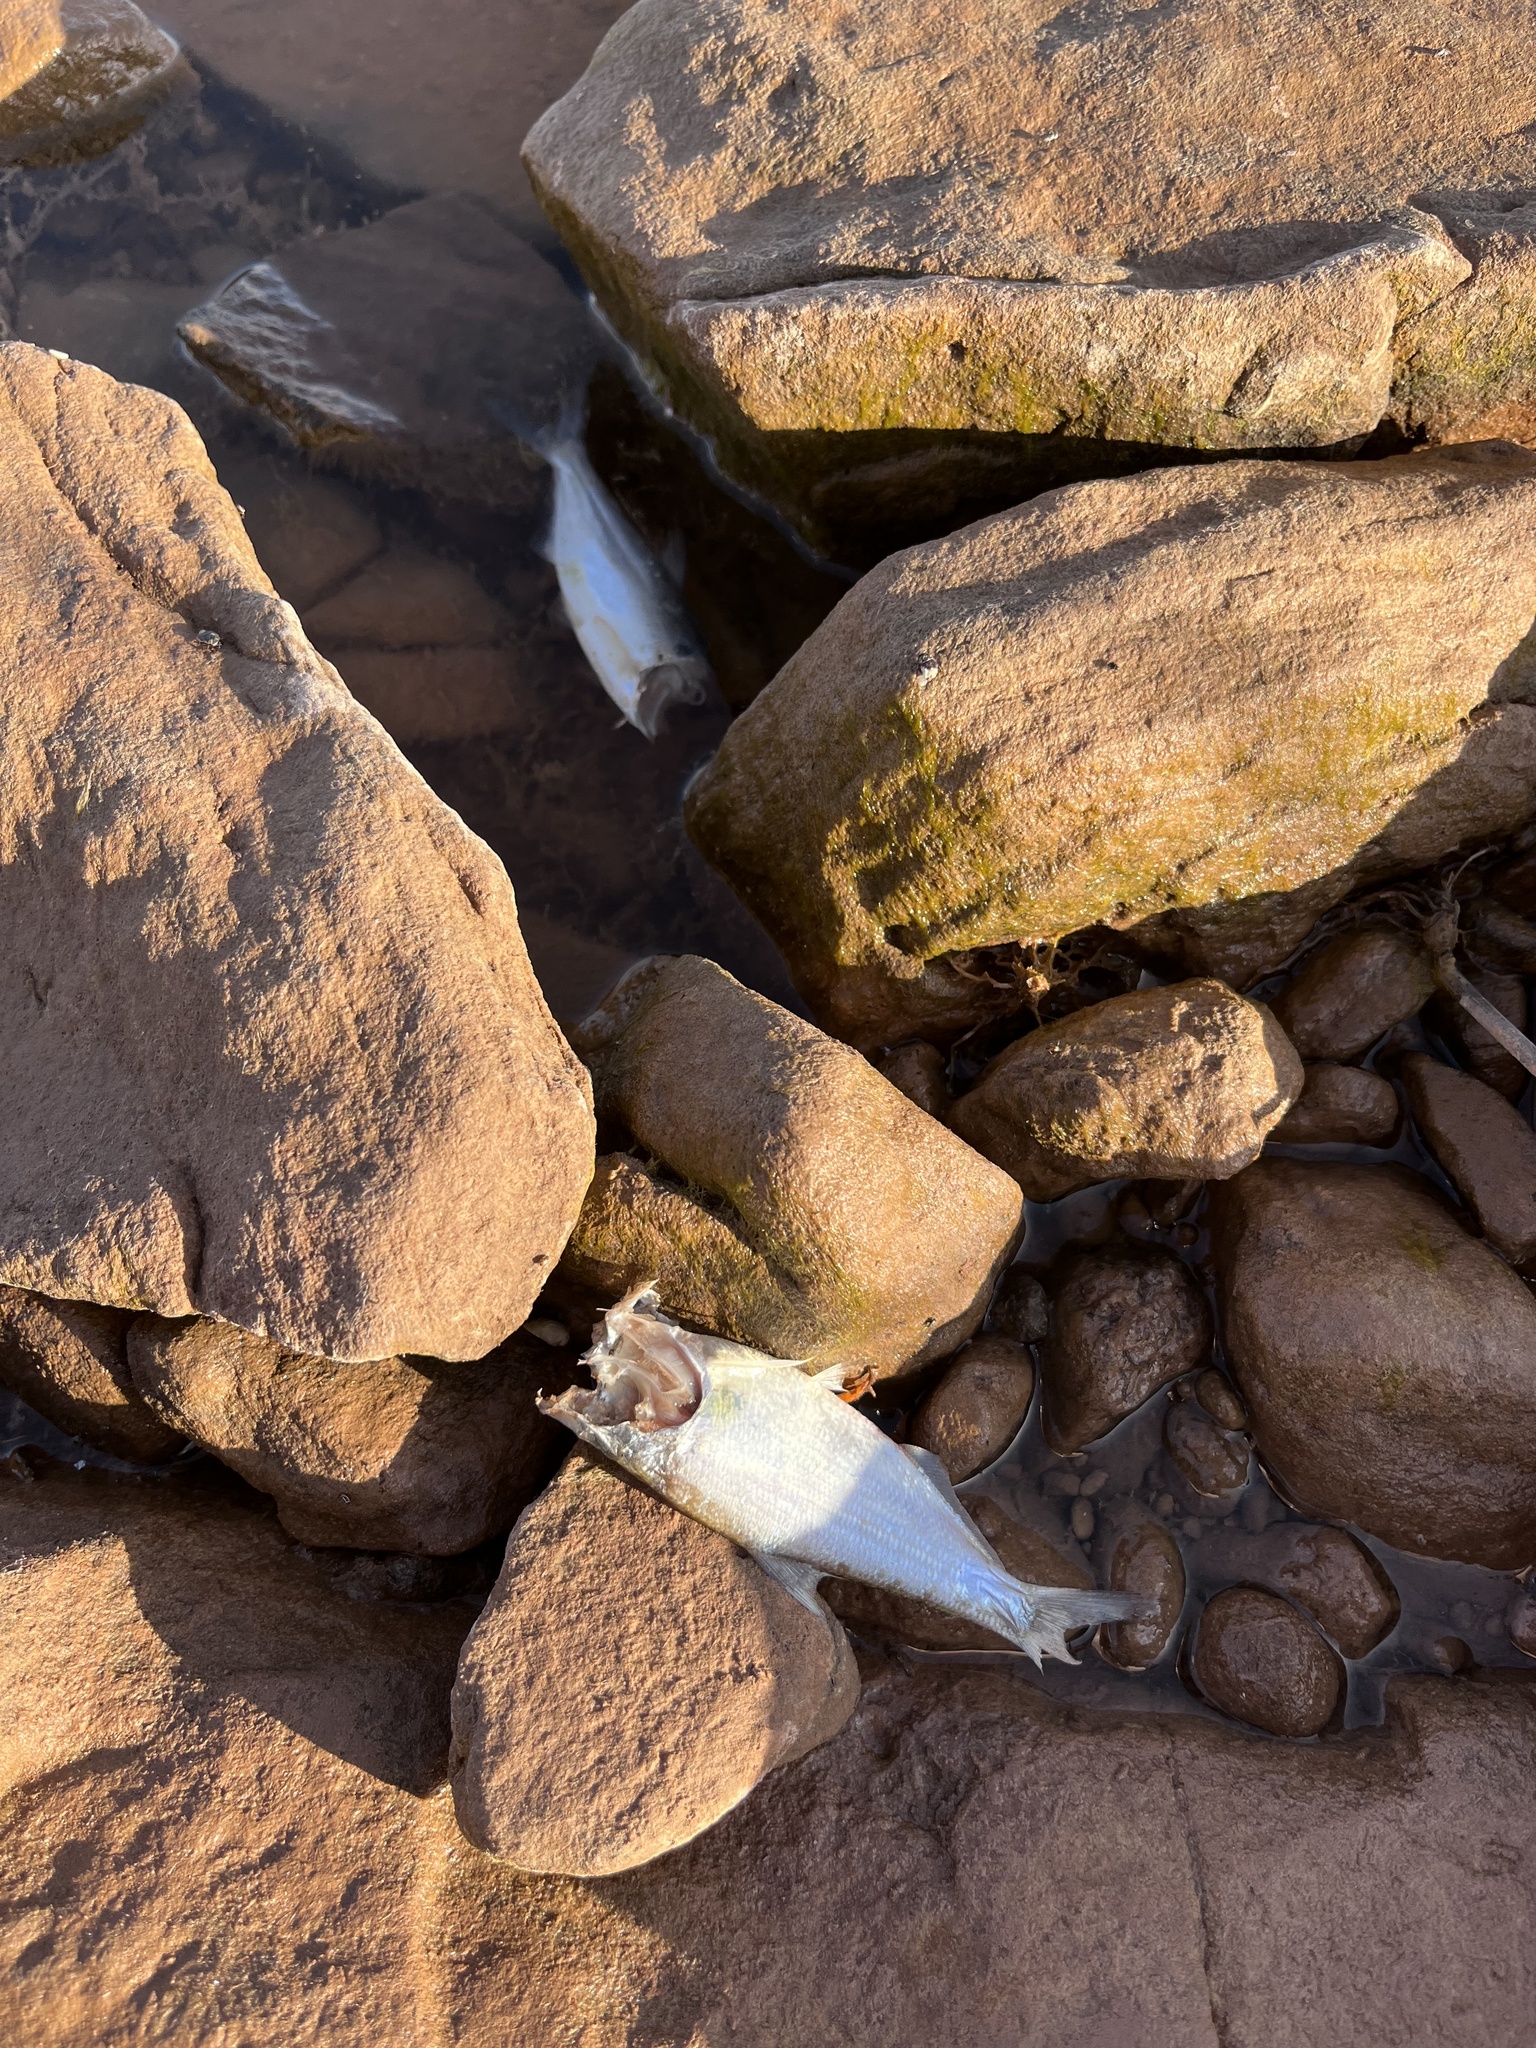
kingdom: Animalia
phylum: Chordata
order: Clupeiformes
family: Clupeidae
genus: Dorosoma
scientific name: Dorosoma cepedianum
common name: Gizzard shad
